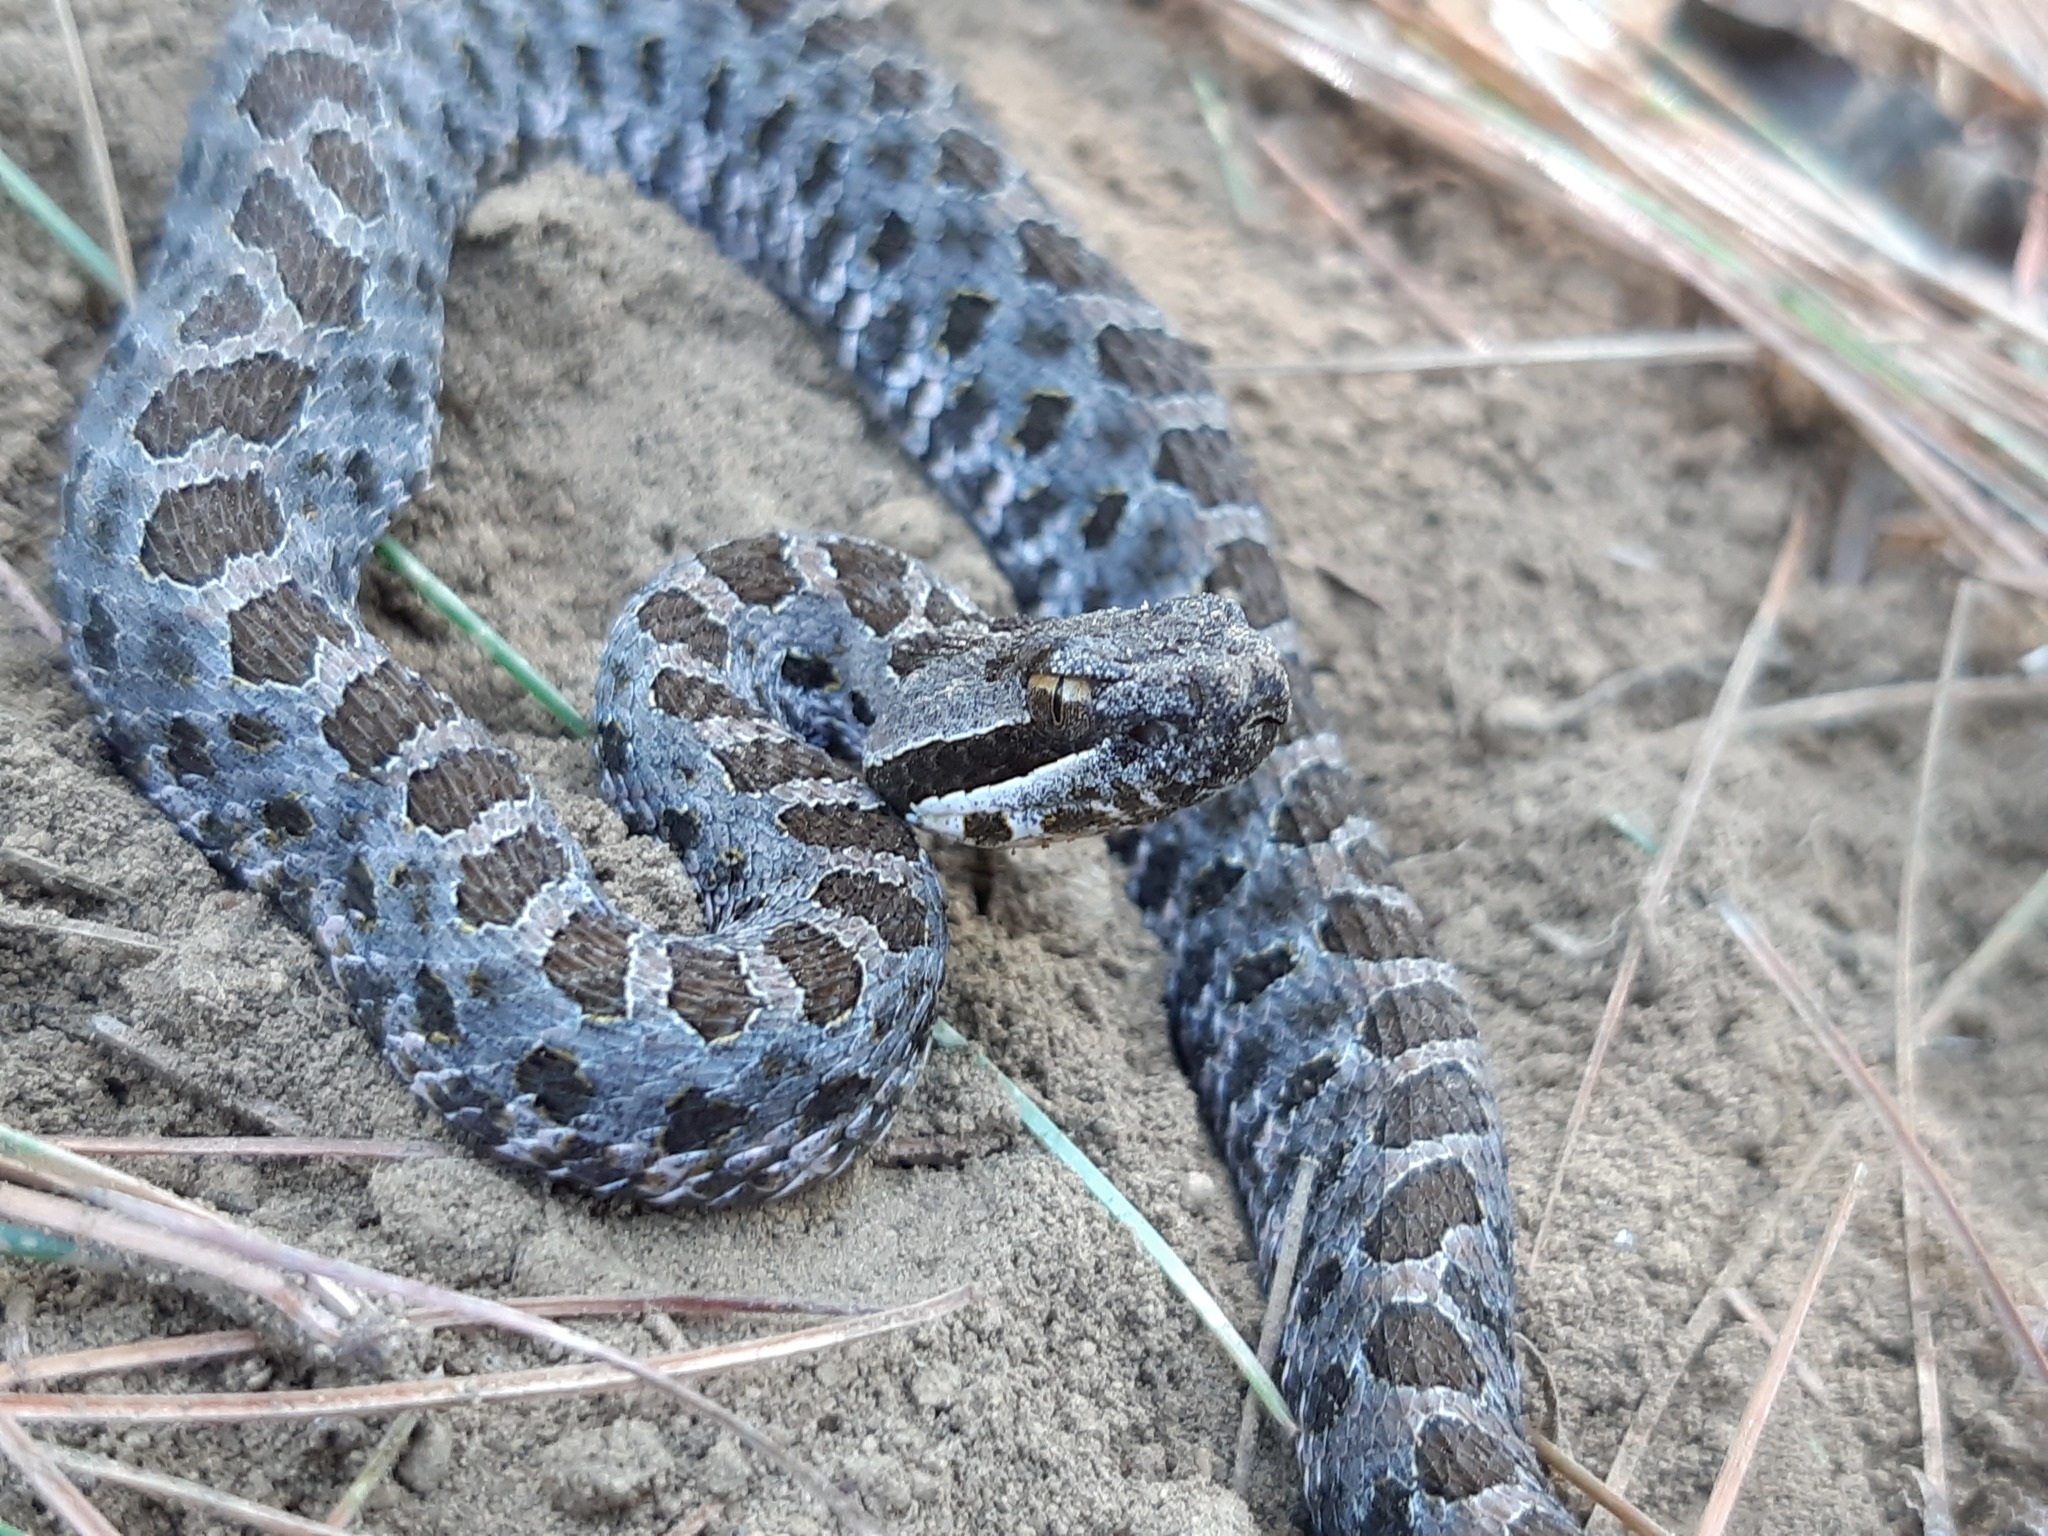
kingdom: Animalia
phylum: Chordata
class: Squamata
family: Viperidae
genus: Crotalus
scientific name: Crotalus armstrongi
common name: Mexican dusky rattlesnake
